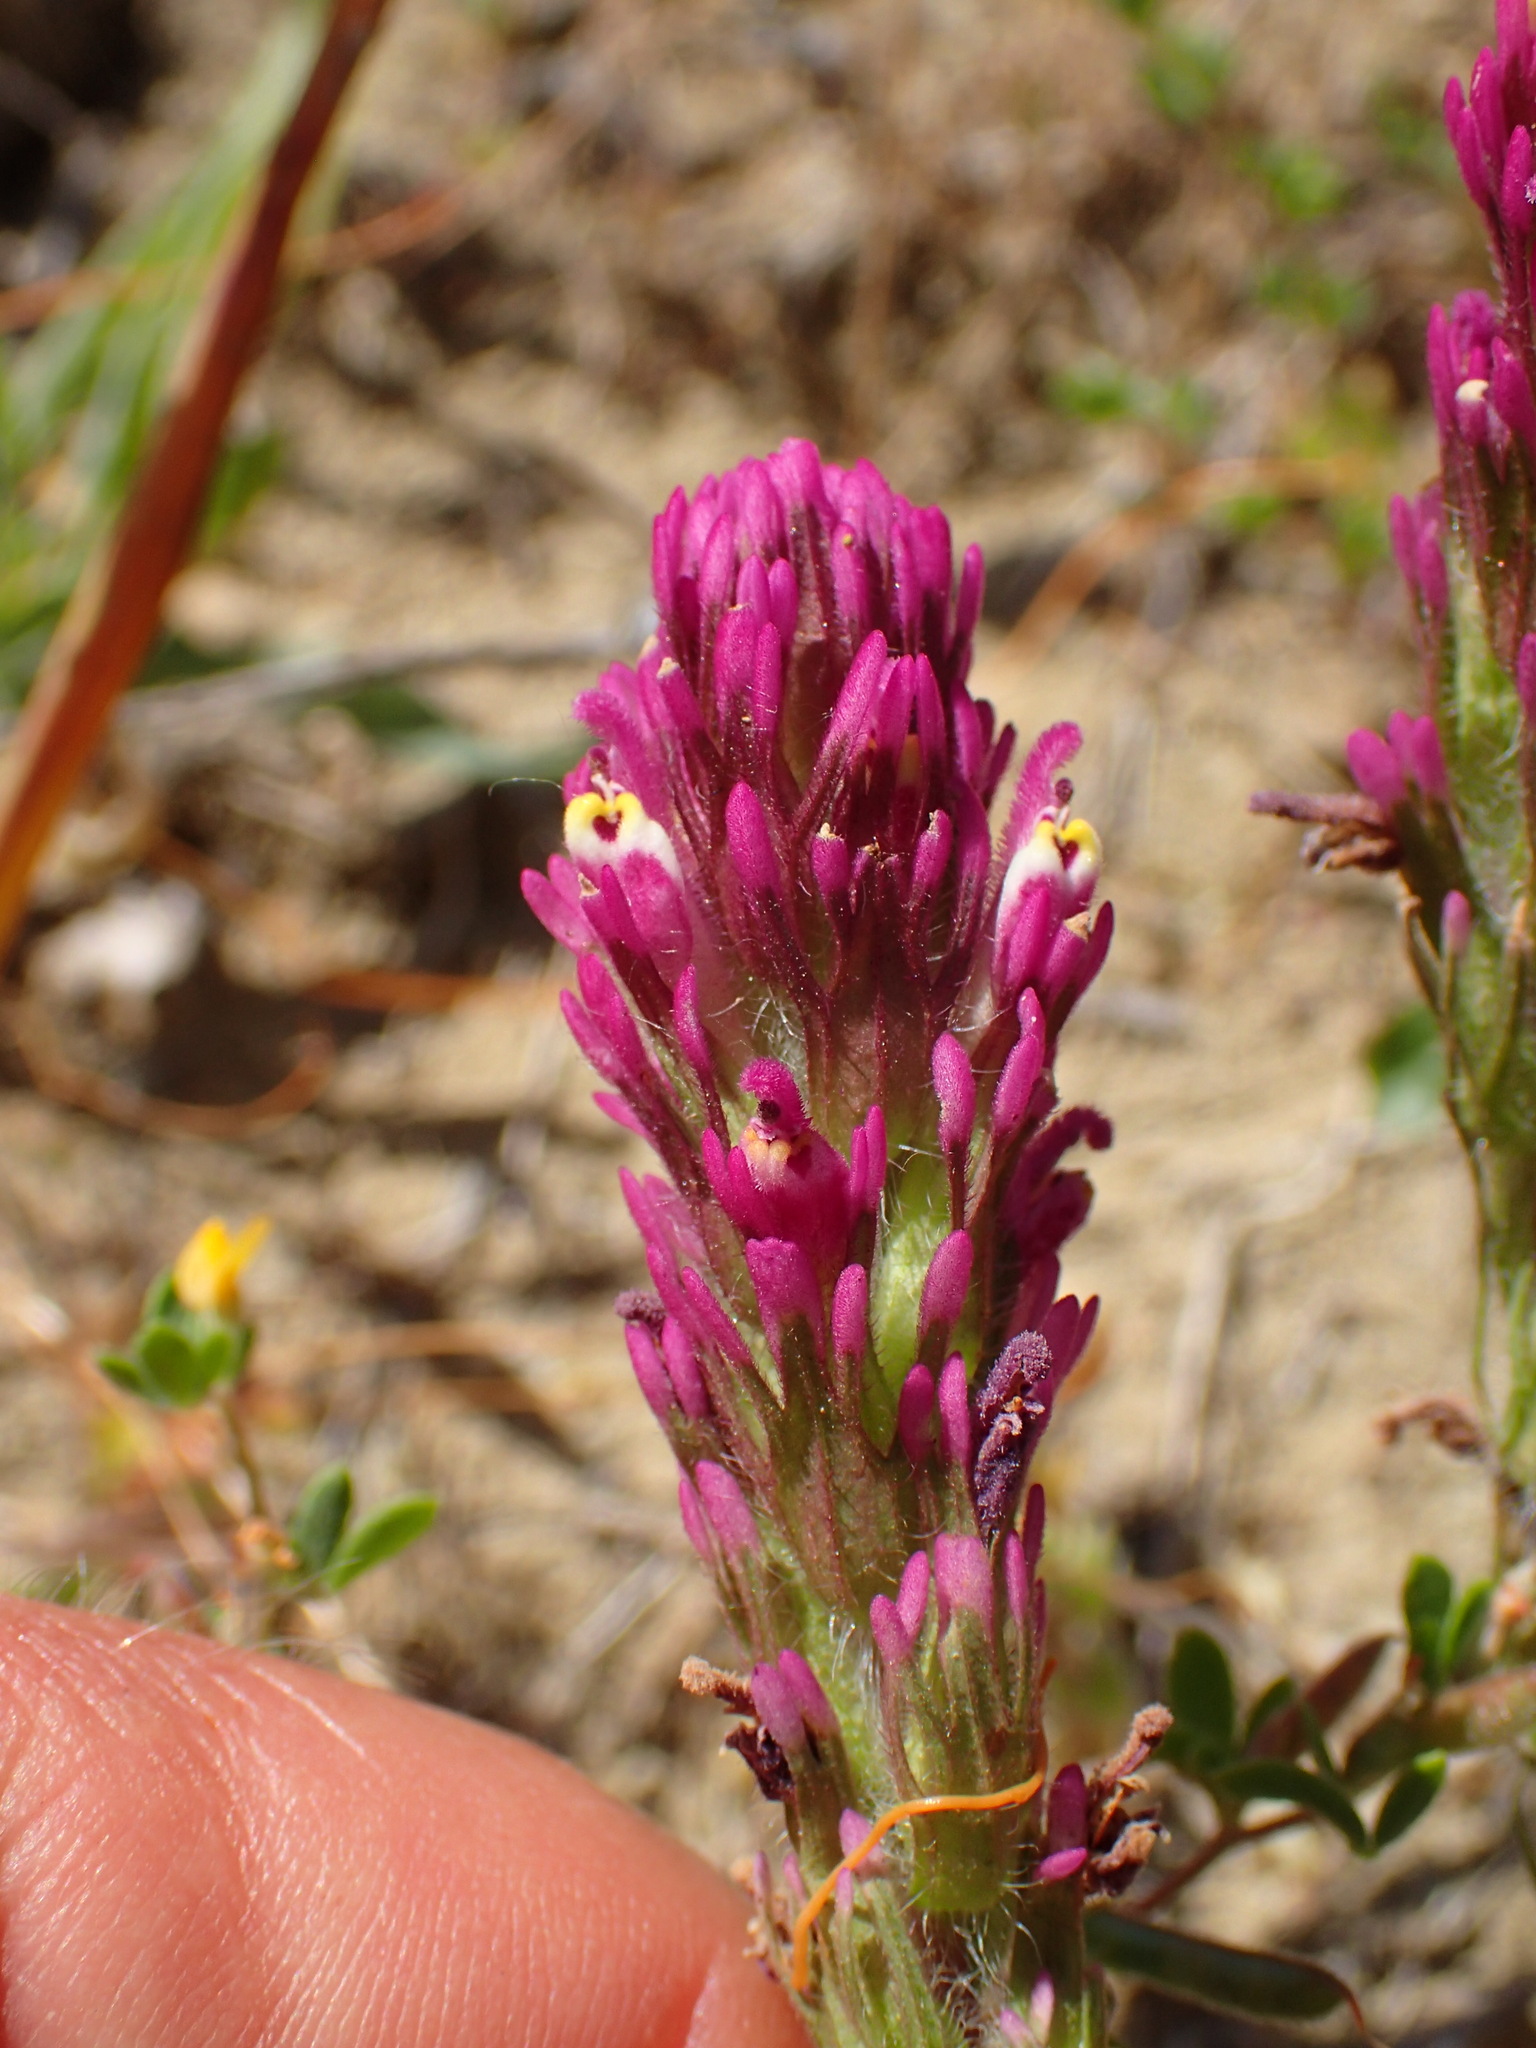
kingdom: Plantae
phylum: Tracheophyta
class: Magnoliopsida
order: Lamiales
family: Orobanchaceae
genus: Castilleja
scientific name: Castilleja exserta
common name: Purple owl-clover
